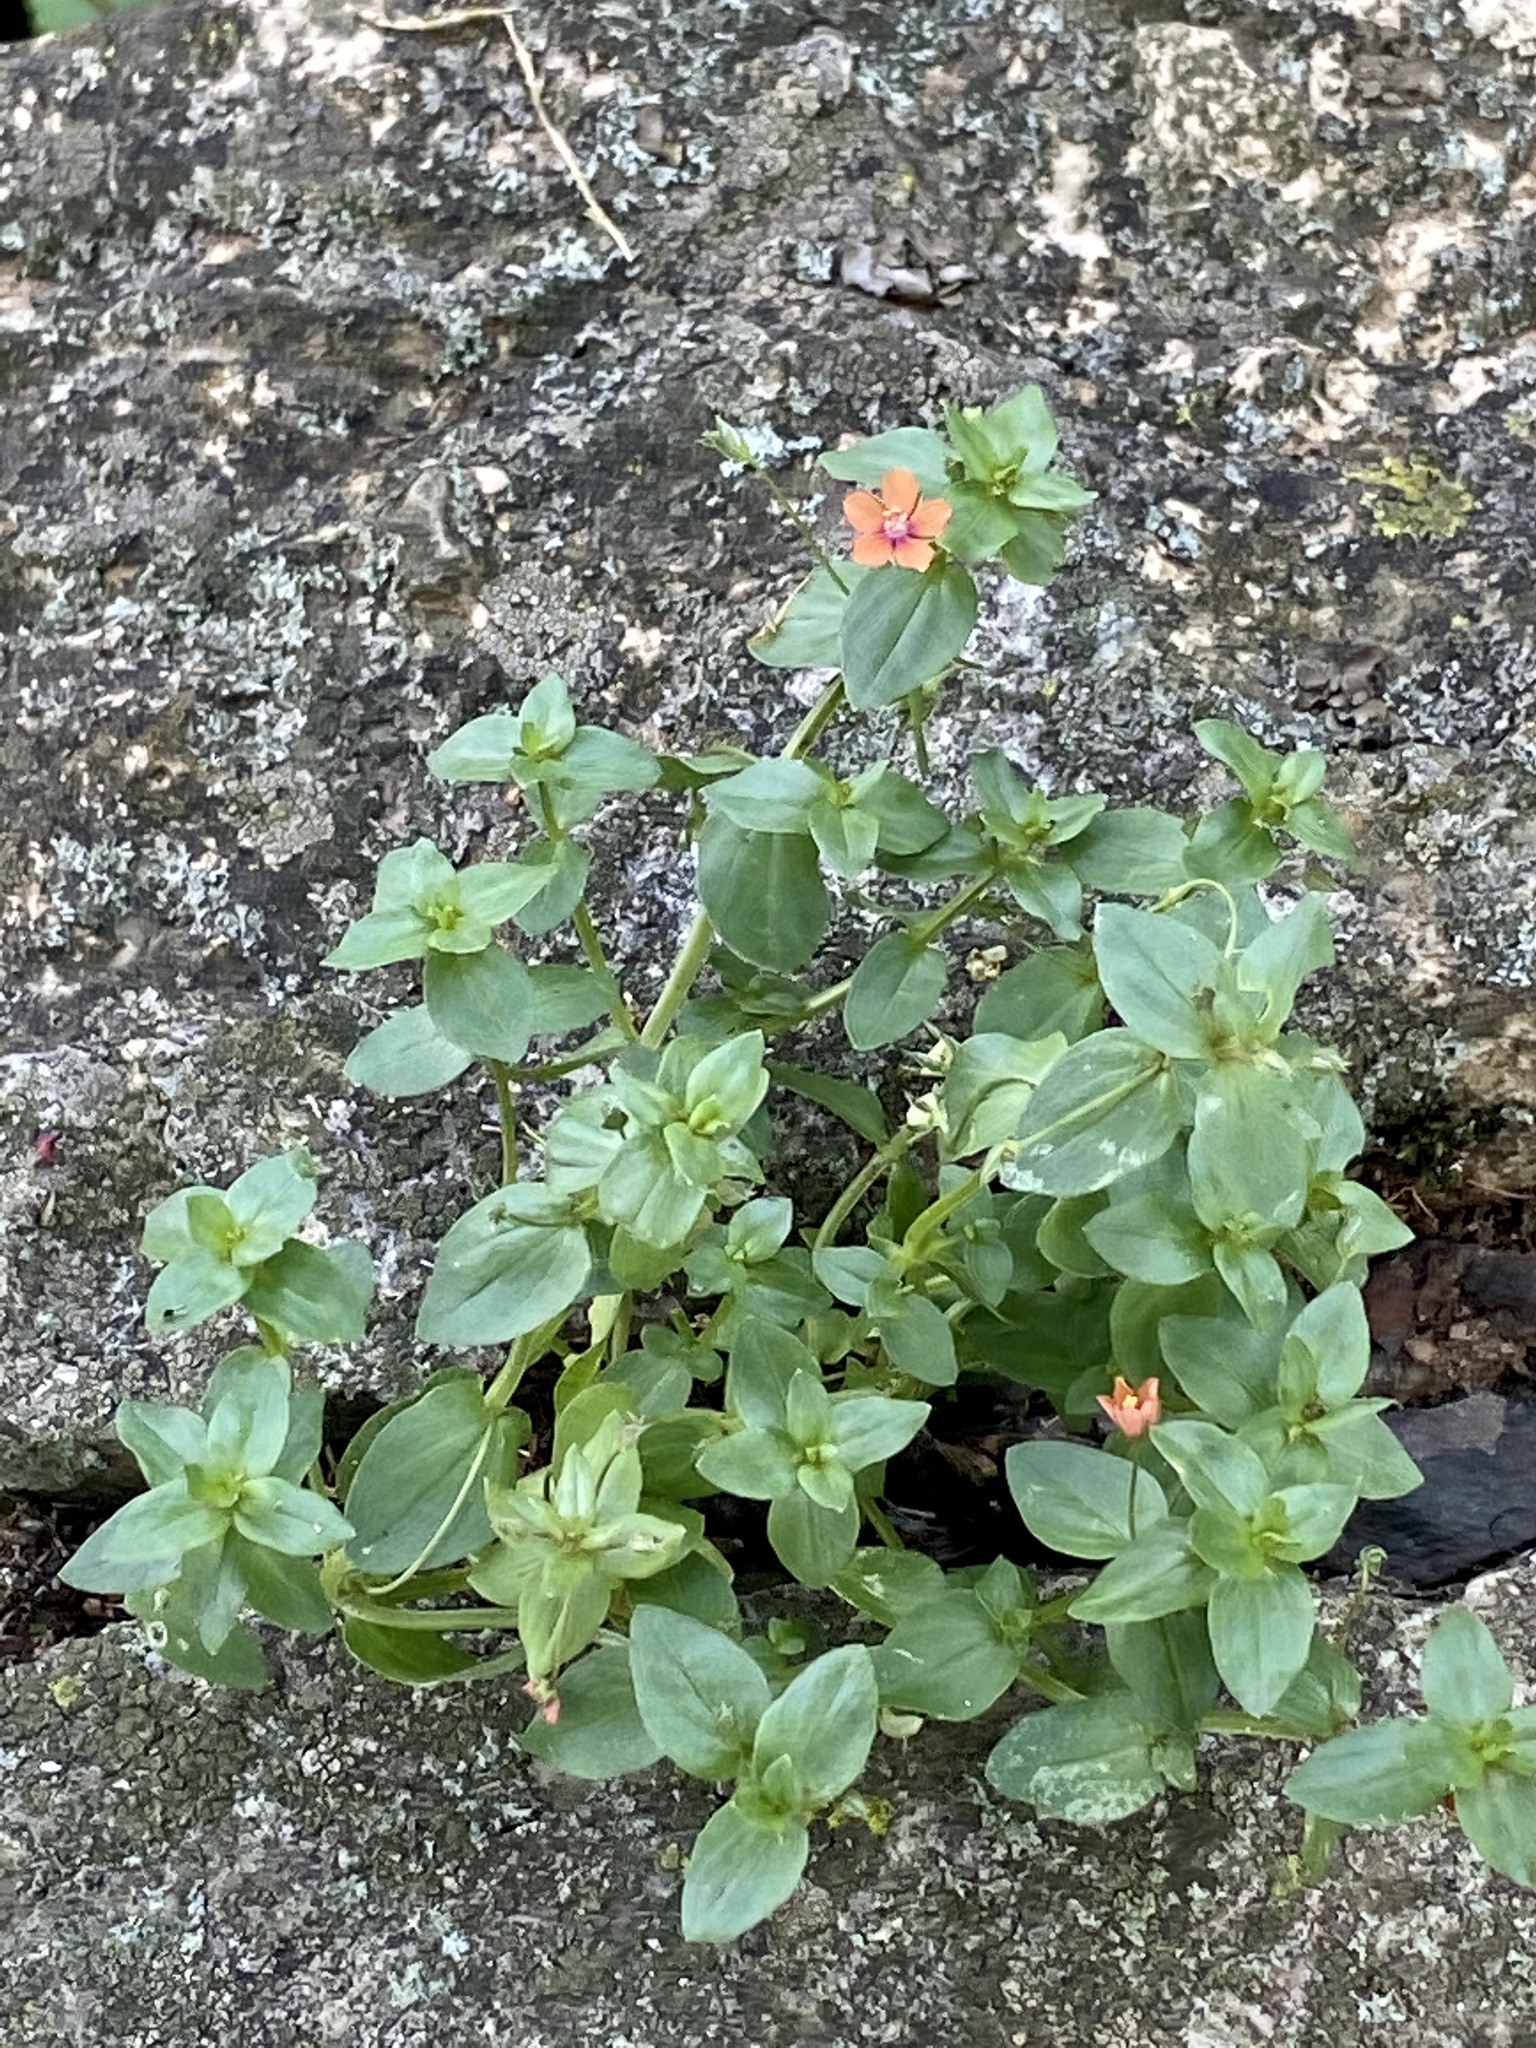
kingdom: Plantae
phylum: Tracheophyta
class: Magnoliopsida
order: Ericales
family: Primulaceae
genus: Lysimachia
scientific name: Lysimachia arvensis
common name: Scarlet pimpernel
